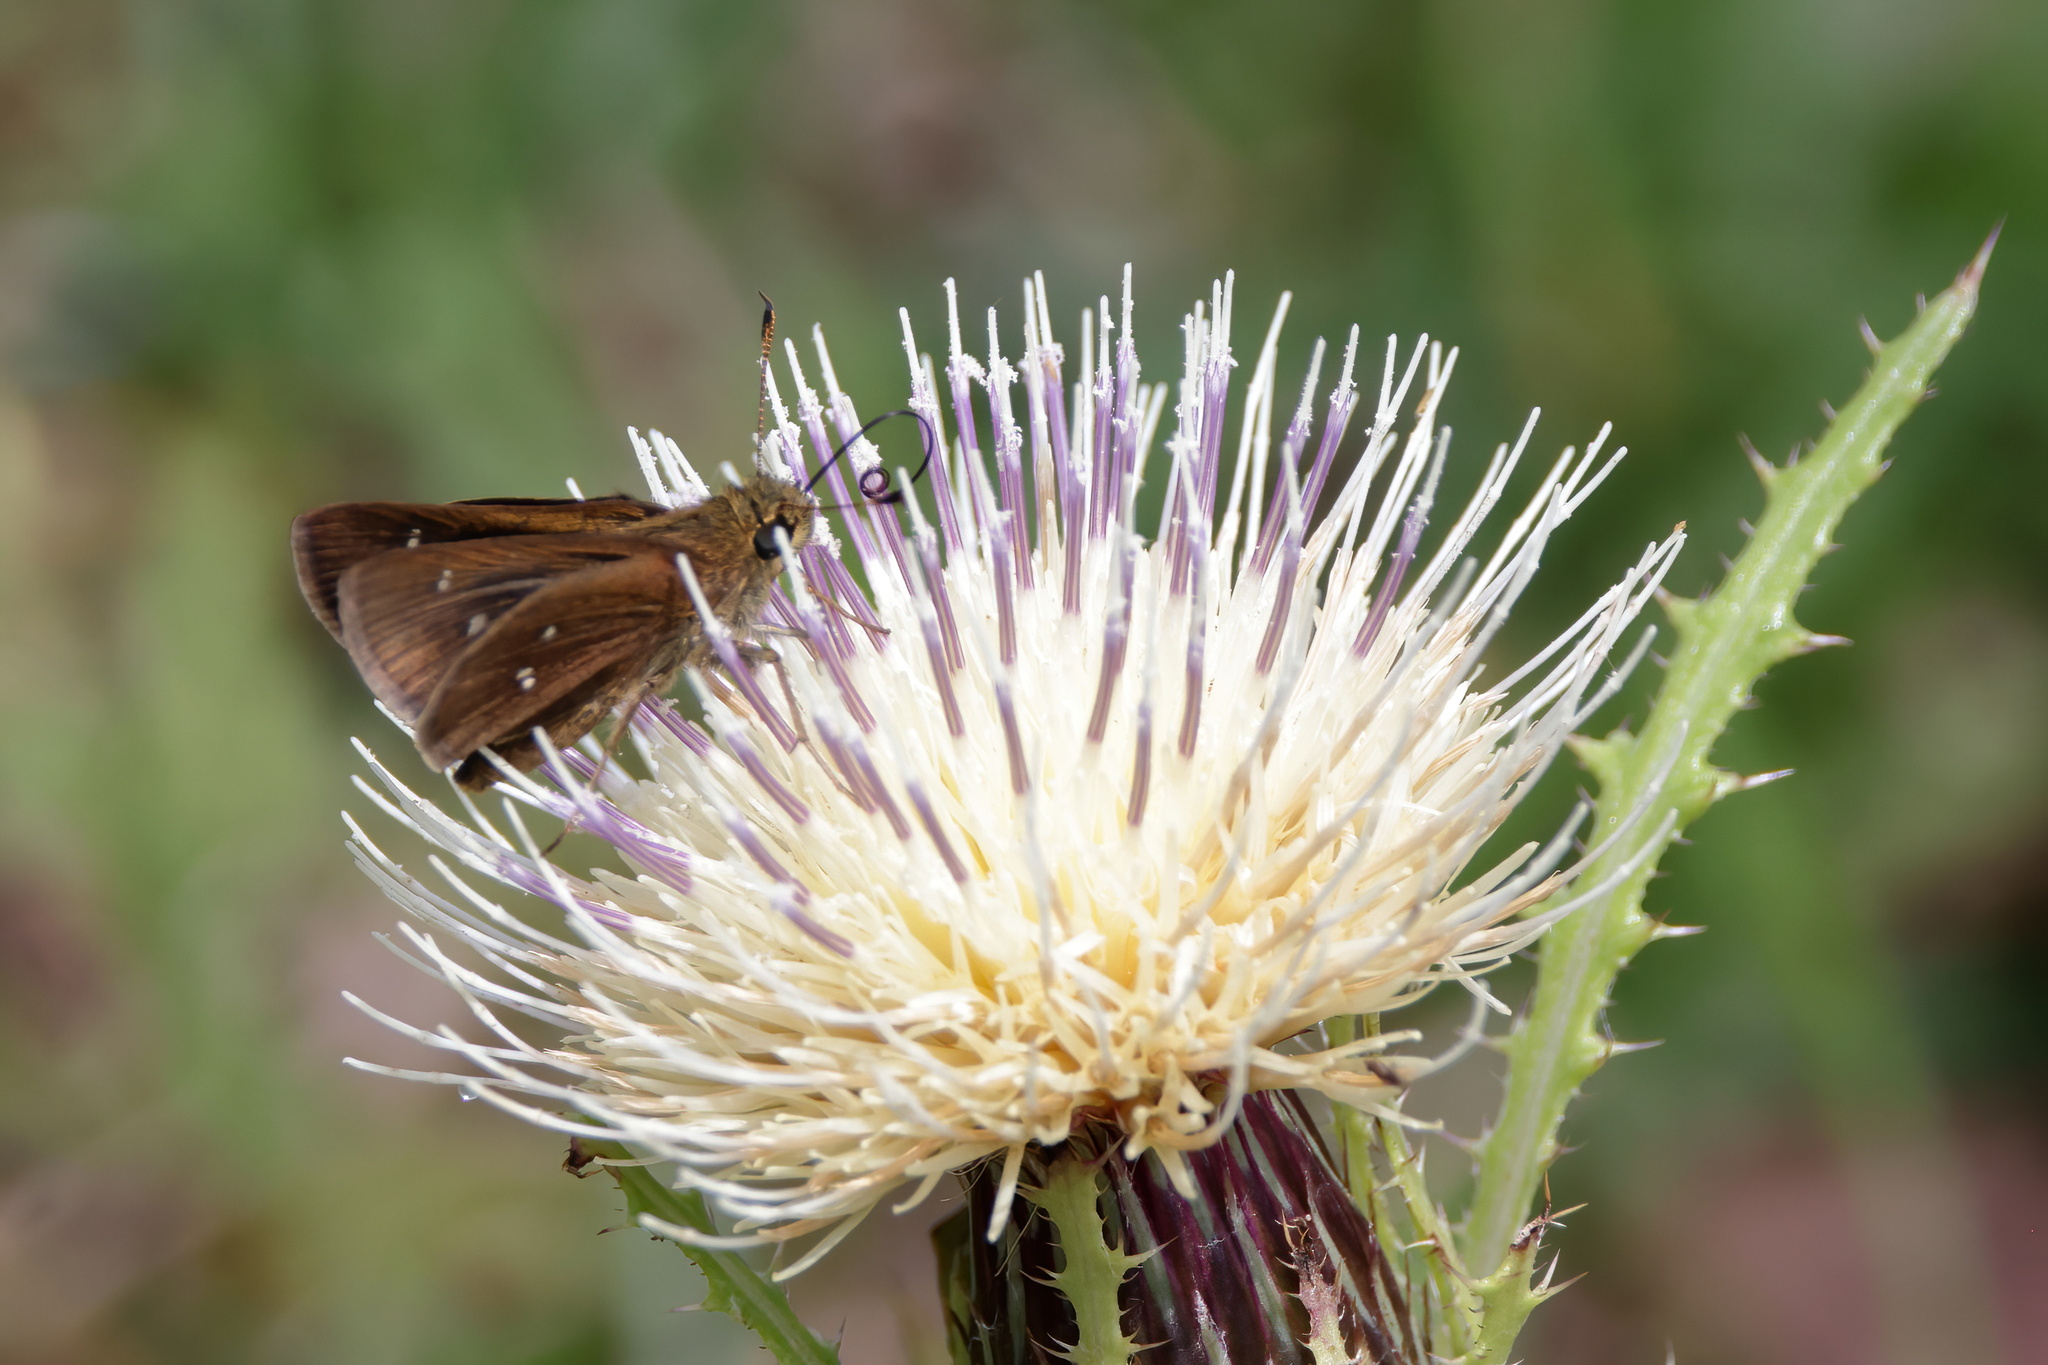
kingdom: Animalia
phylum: Arthropoda
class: Insecta
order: Lepidoptera
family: Hesperiidae
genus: Oligoria
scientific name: Oligoria maculata
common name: Twin-spot skipper
